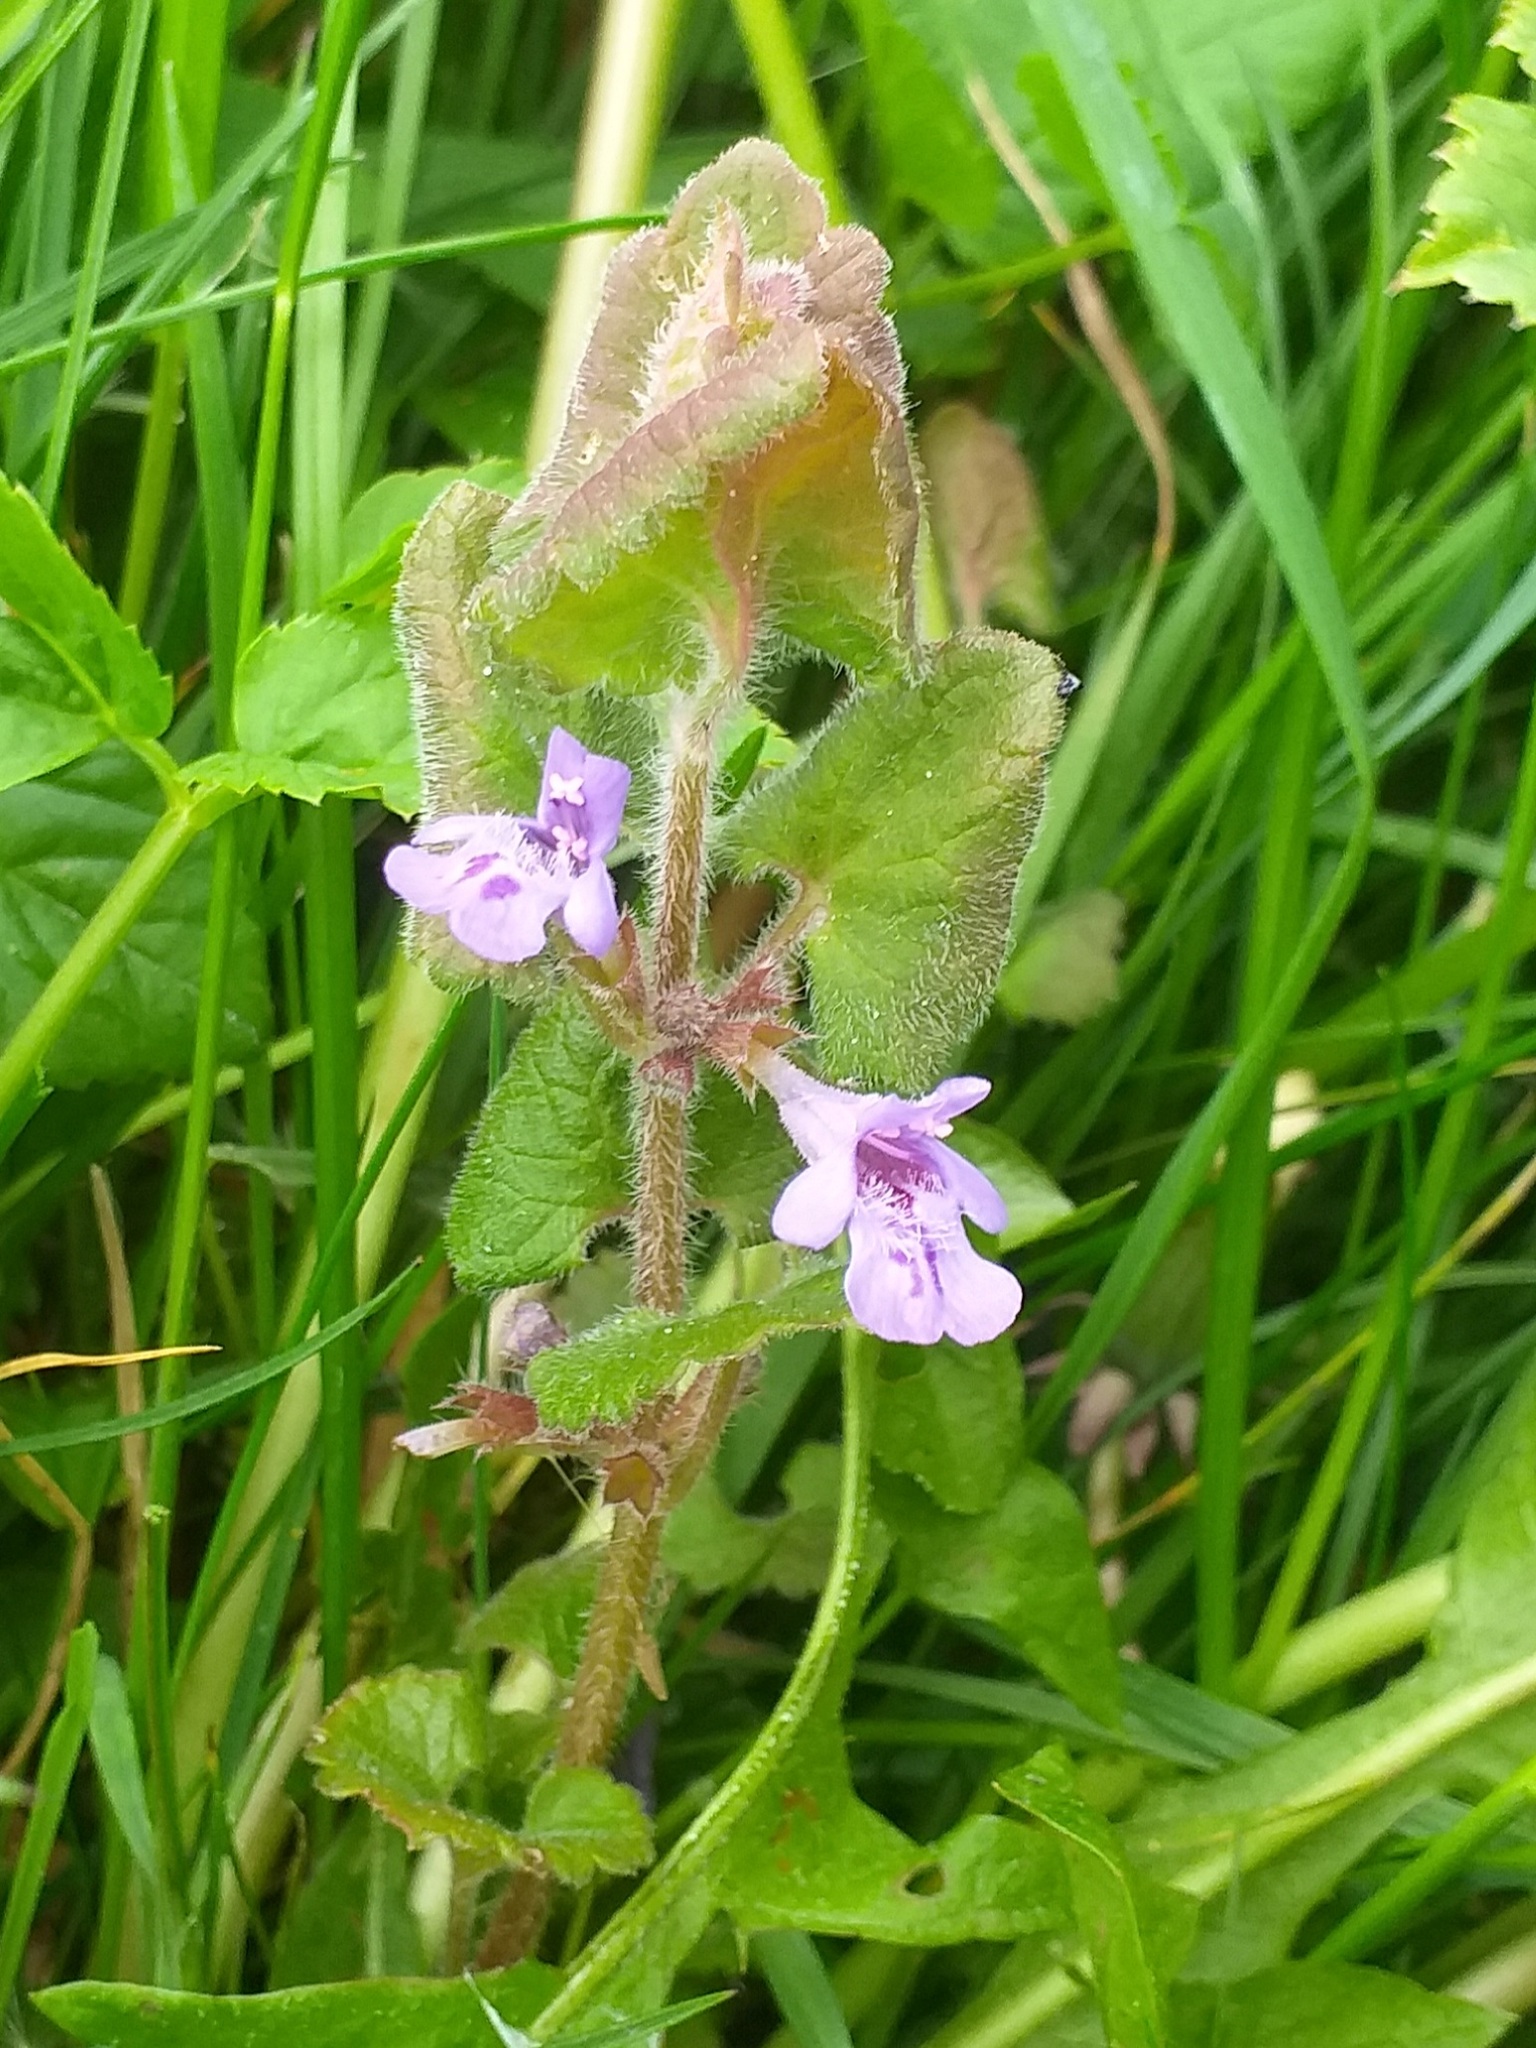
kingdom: Plantae
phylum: Tracheophyta
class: Magnoliopsida
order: Lamiales
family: Lamiaceae
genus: Glechoma
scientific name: Glechoma hederacea
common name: Ground ivy
